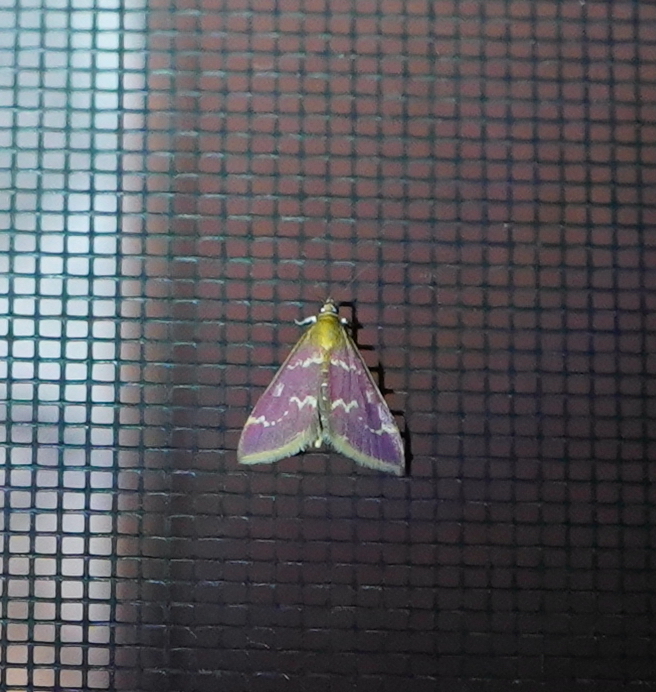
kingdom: Animalia
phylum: Arthropoda
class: Insecta
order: Lepidoptera
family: Crambidae
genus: Pyrausta
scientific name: Pyrausta signatalis
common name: Raspberry pyrausta moth
